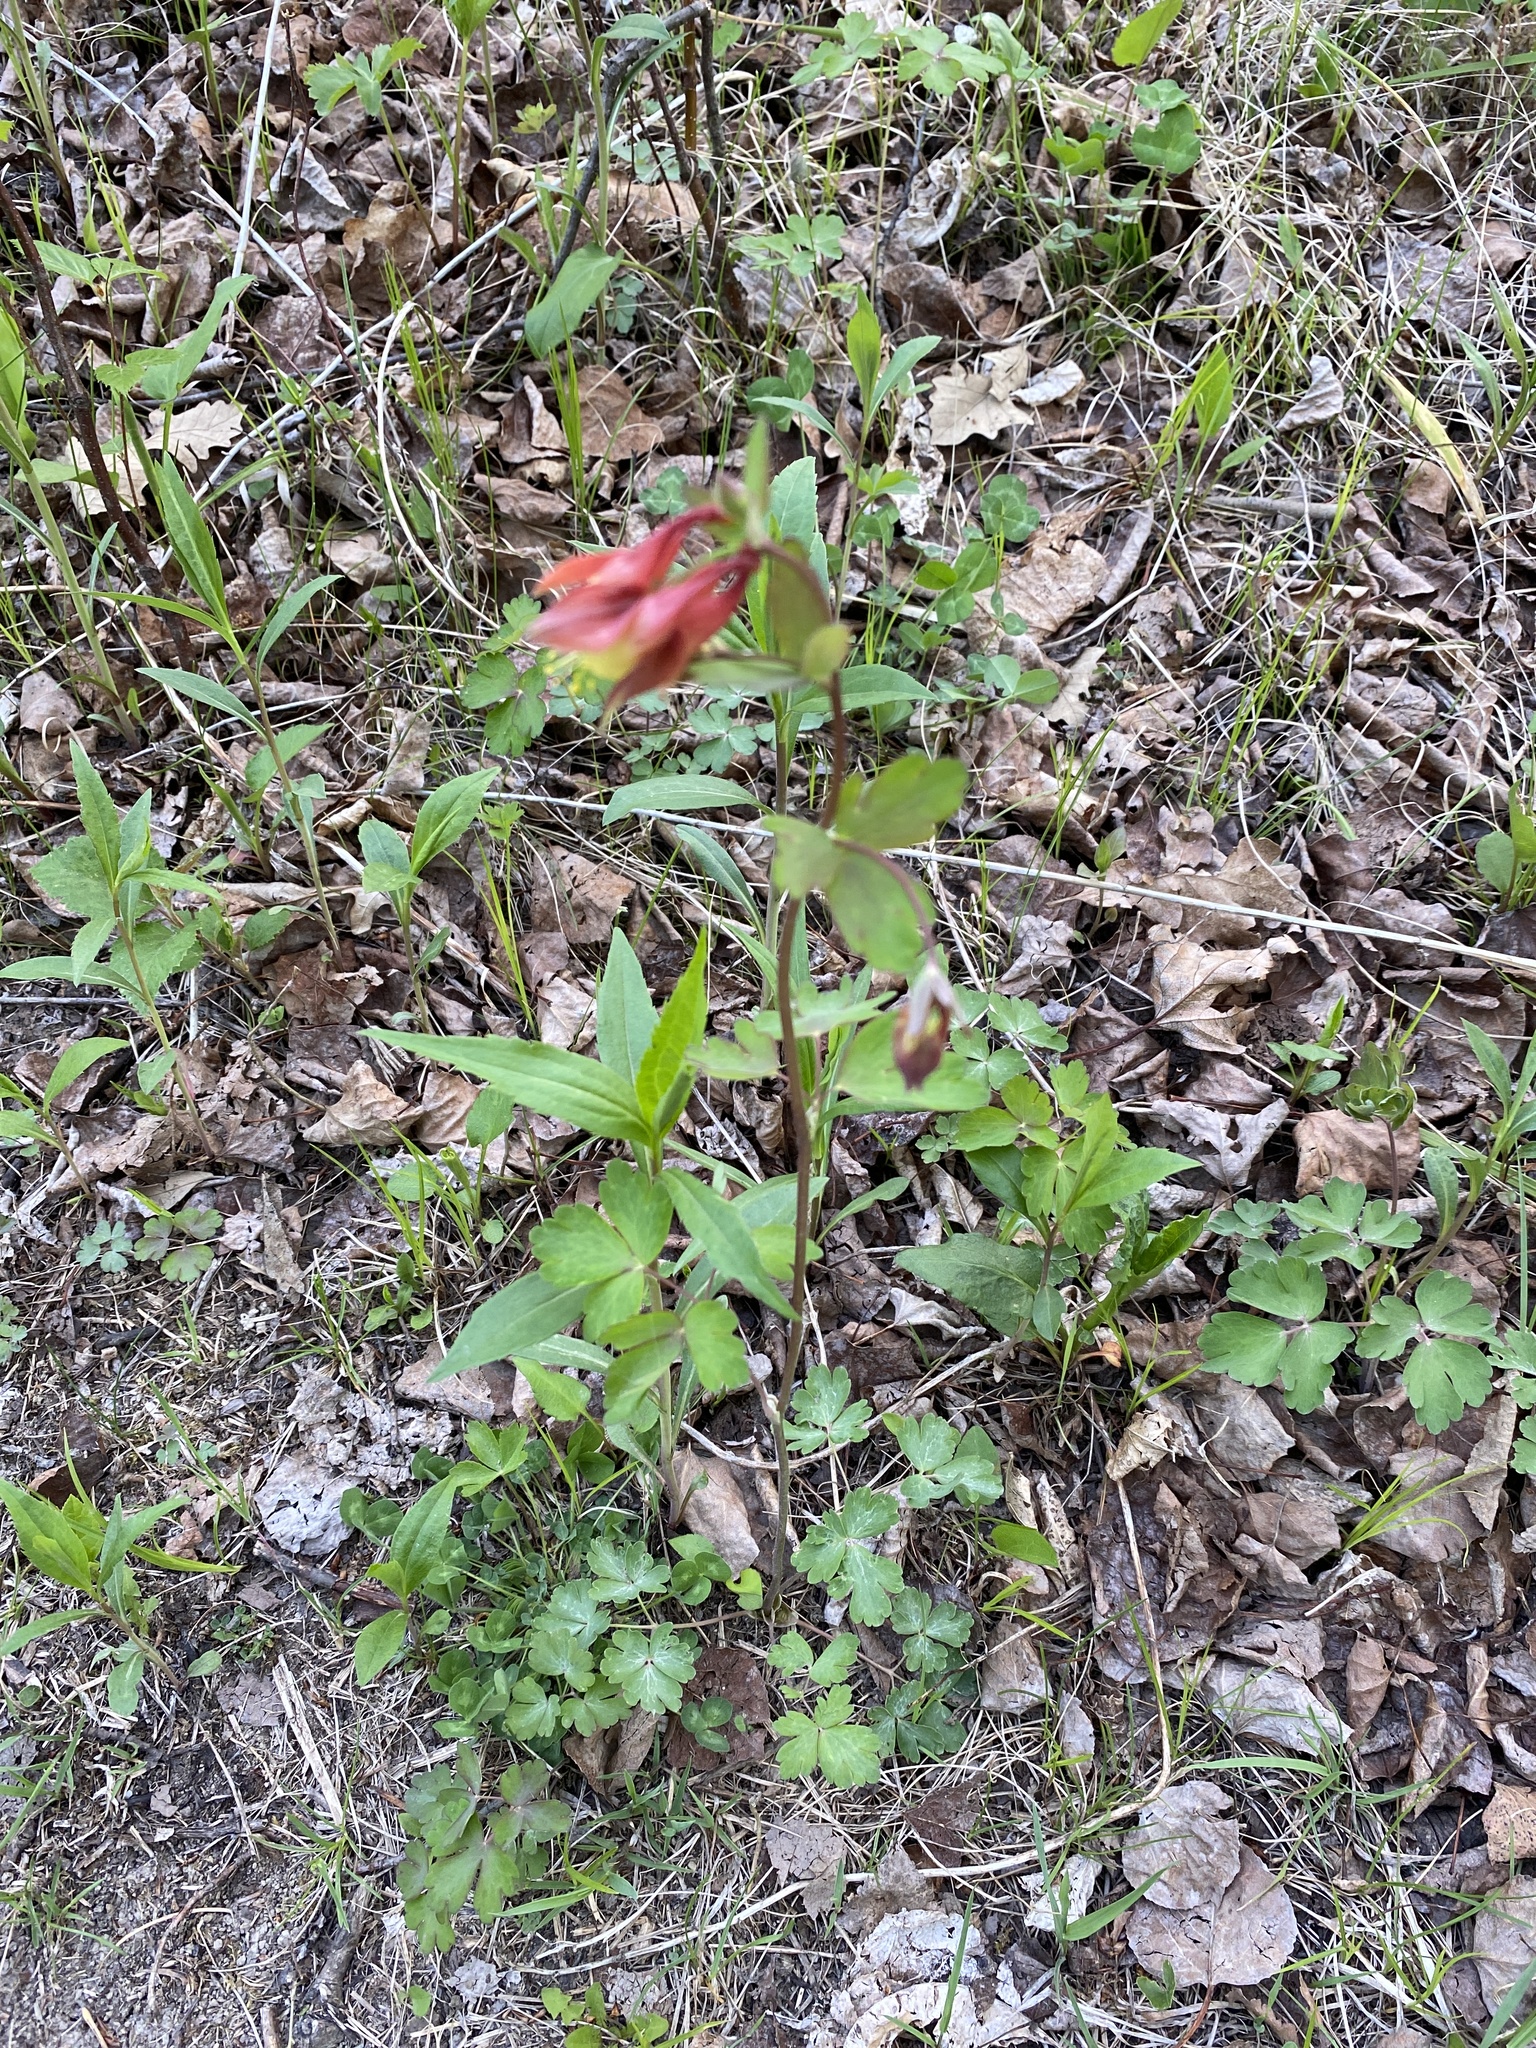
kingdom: Plantae
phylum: Tracheophyta
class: Magnoliopsida
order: Ranunculales
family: Ranunculaceae
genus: Aquilegia
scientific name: Aquilegia canadensis
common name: American columbine
